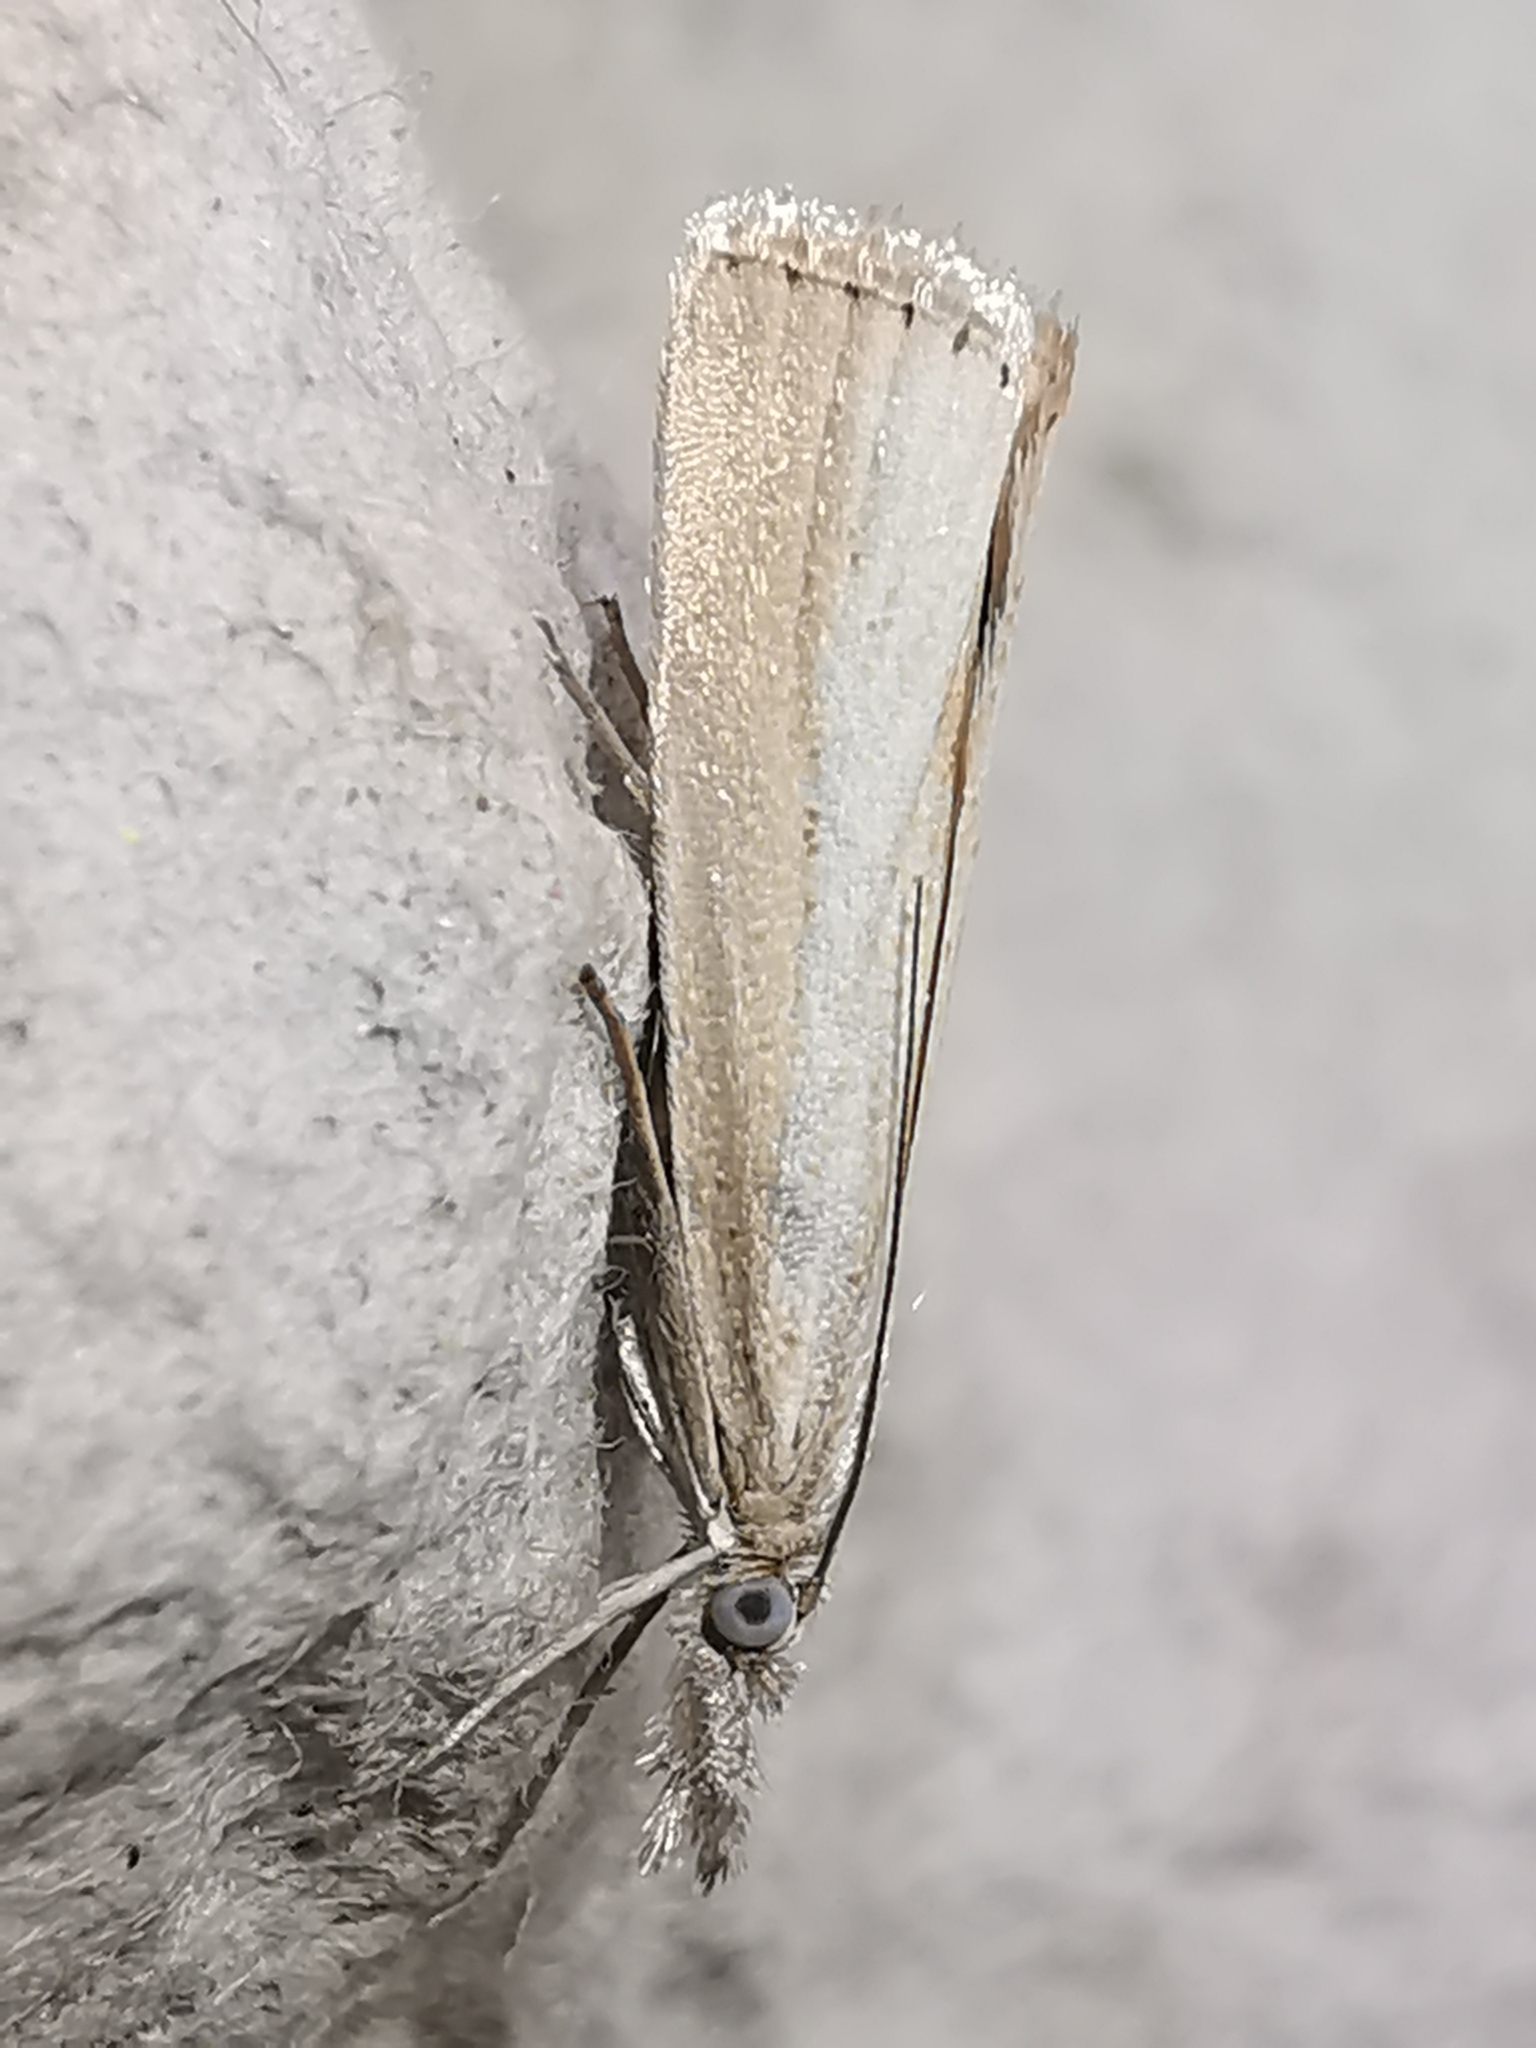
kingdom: Animalia
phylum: Arthropoda
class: Insecta
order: Lepidoptera
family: Crambidae
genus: Agriphila
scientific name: Agriphila straminella
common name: Straw grass-veneer
